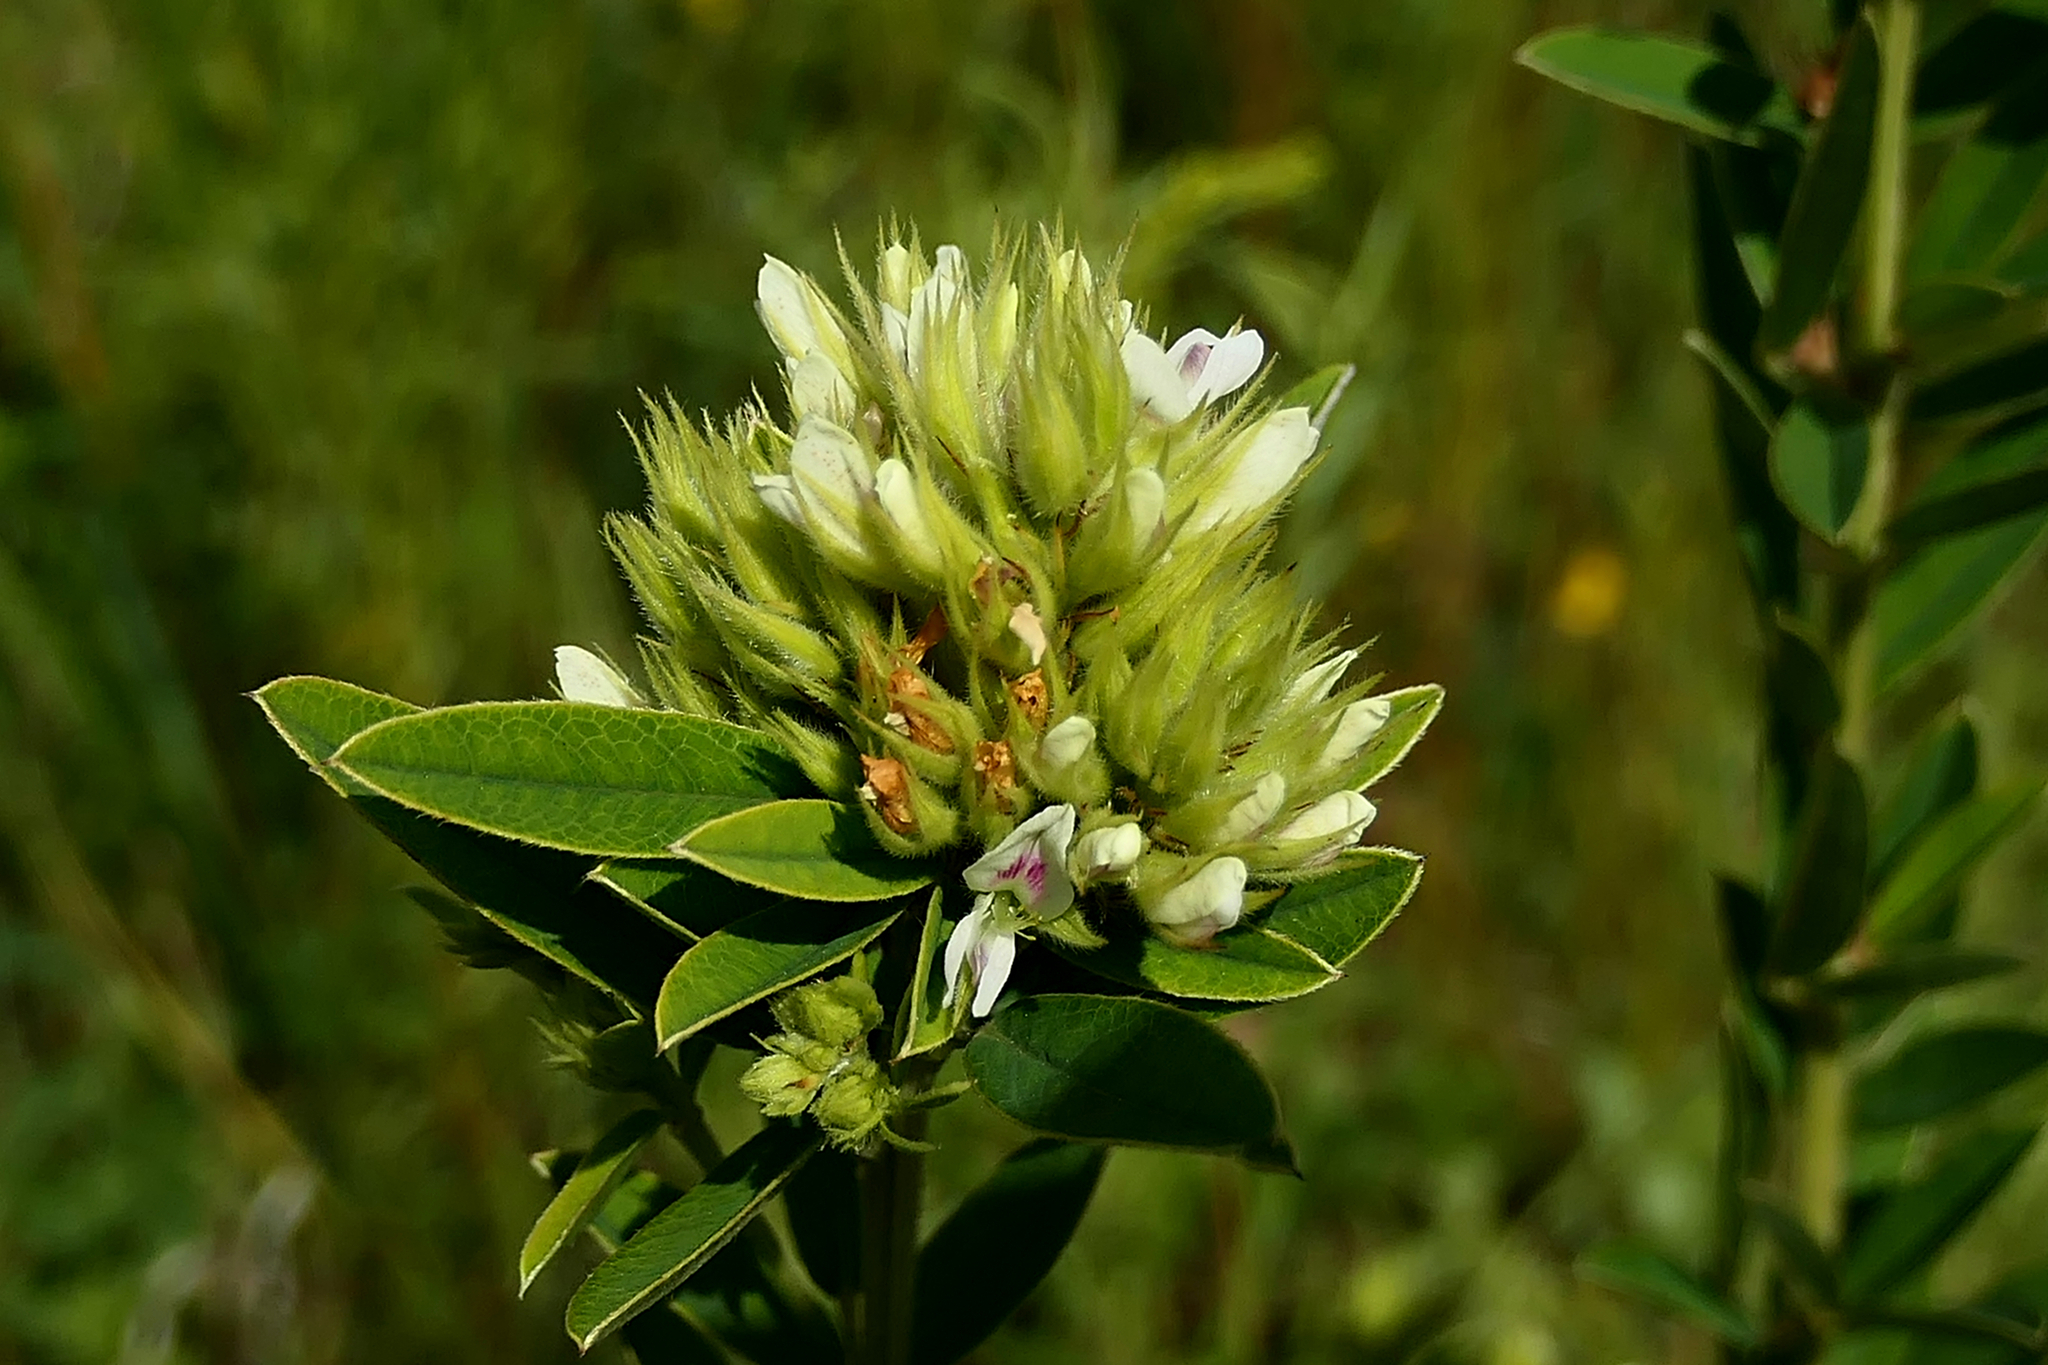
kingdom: Plantae
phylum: Tracheophyta
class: Magnoliopsida
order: Fabales
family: Fabaceae
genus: Lespedeza
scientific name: Lespedeza capitata
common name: Dusty clover
